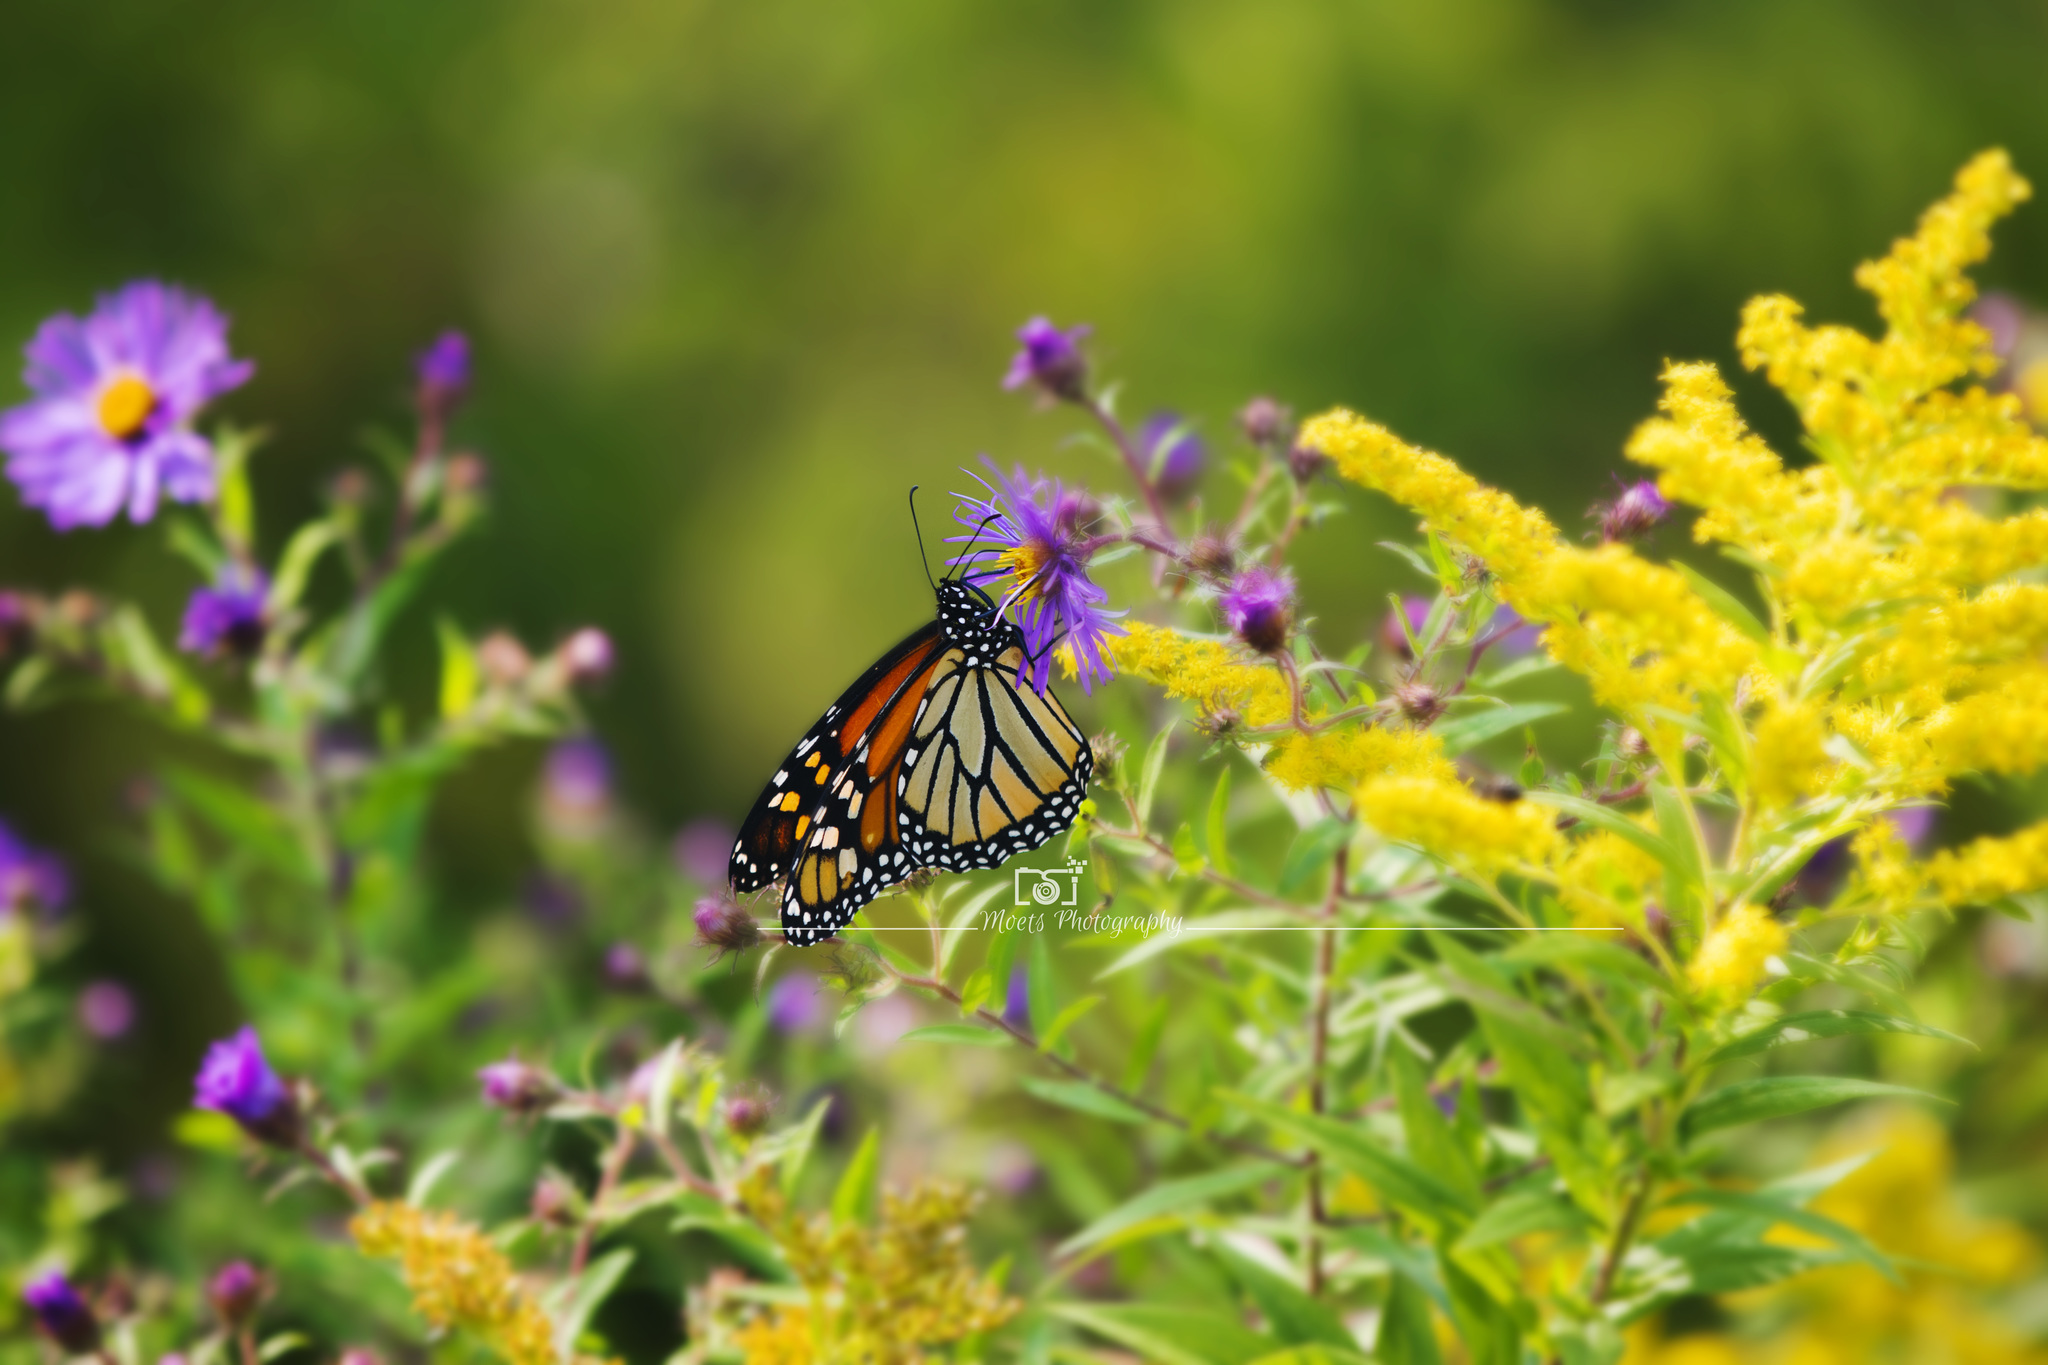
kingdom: Animalia
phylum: Arthropoda
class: Insecta
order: Lepidoptera
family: Nymphalidae
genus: Danaus
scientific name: Danaus plexippus
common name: Monarch
